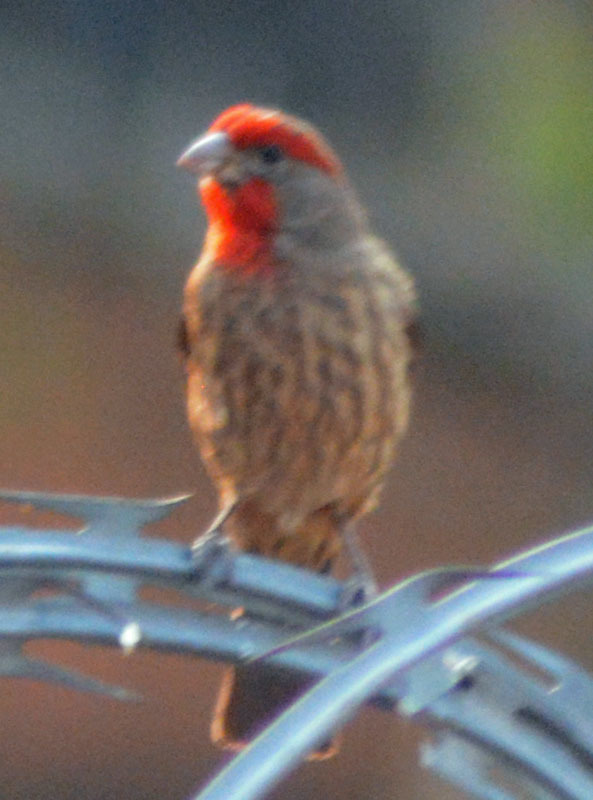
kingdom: Animalia
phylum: Chordata
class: Aves
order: Passeriformes
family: Fringillidae
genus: Haemorhous
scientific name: Haemorhous mexicanus
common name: House finch
